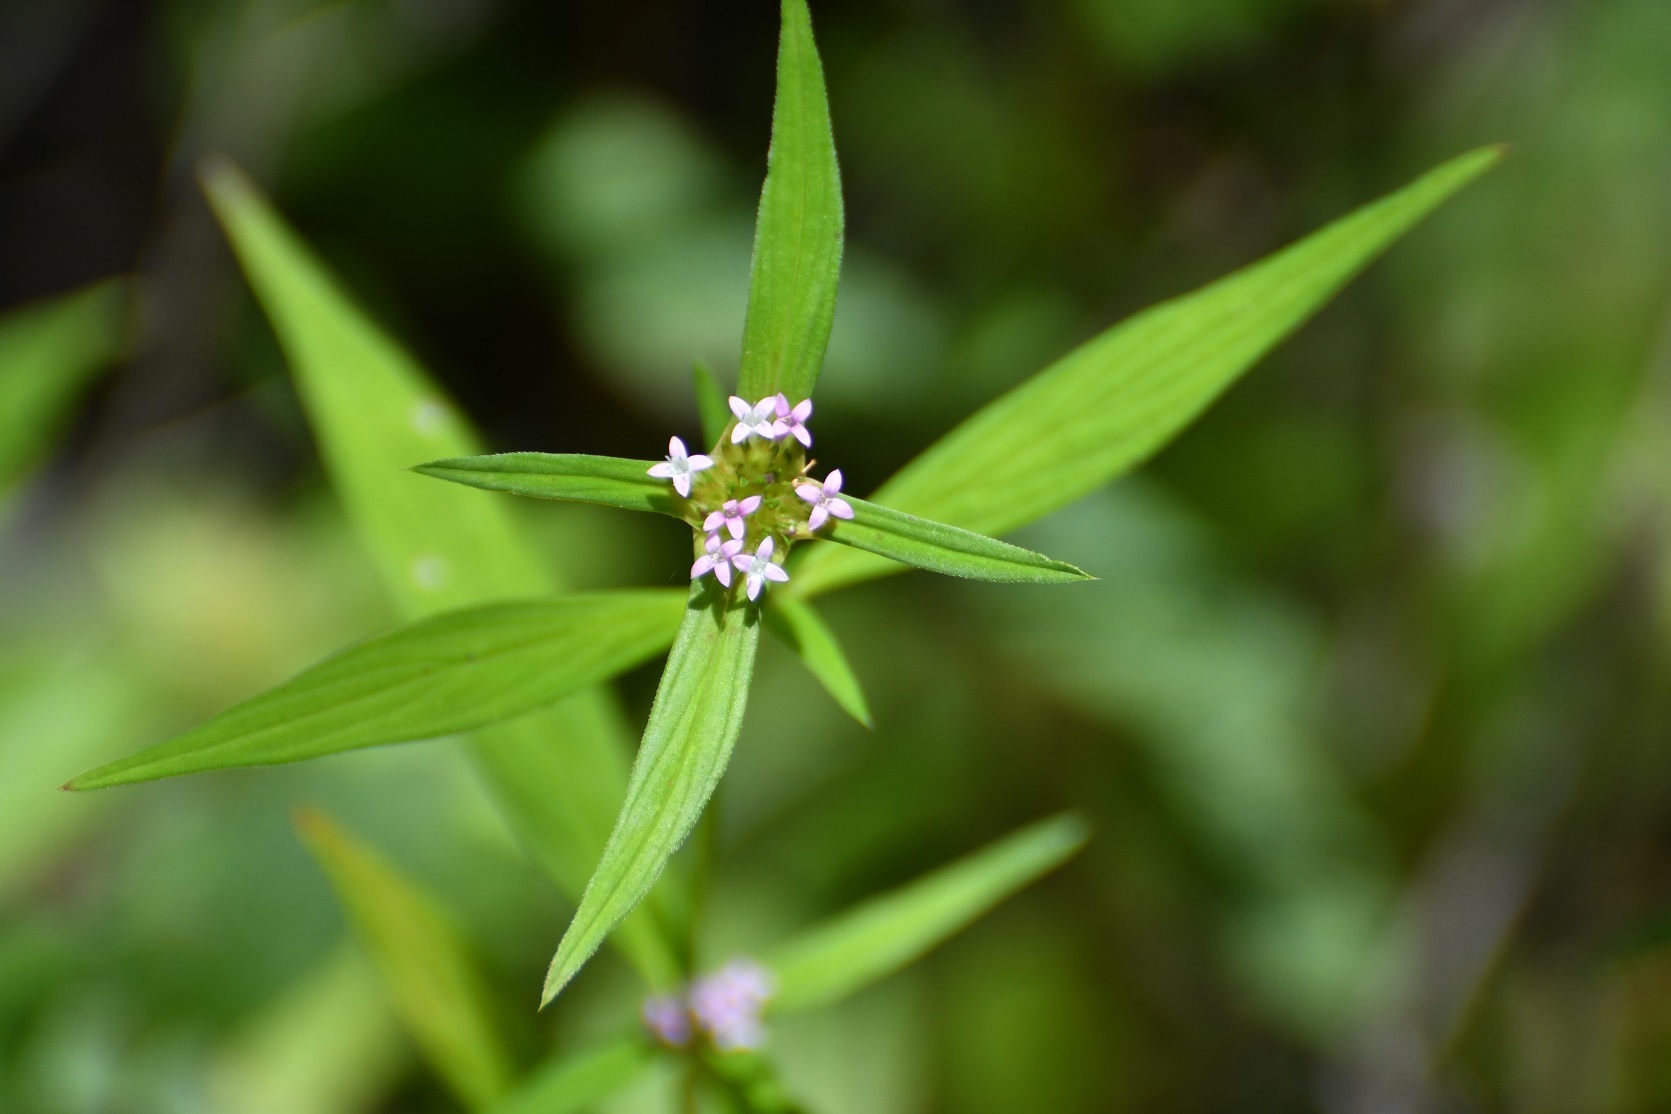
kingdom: Plantae
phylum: Tracheophyta
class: Magnoliopsida
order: Gentianales
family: Rubiaceae
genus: Crusea
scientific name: Crusea longiflora
